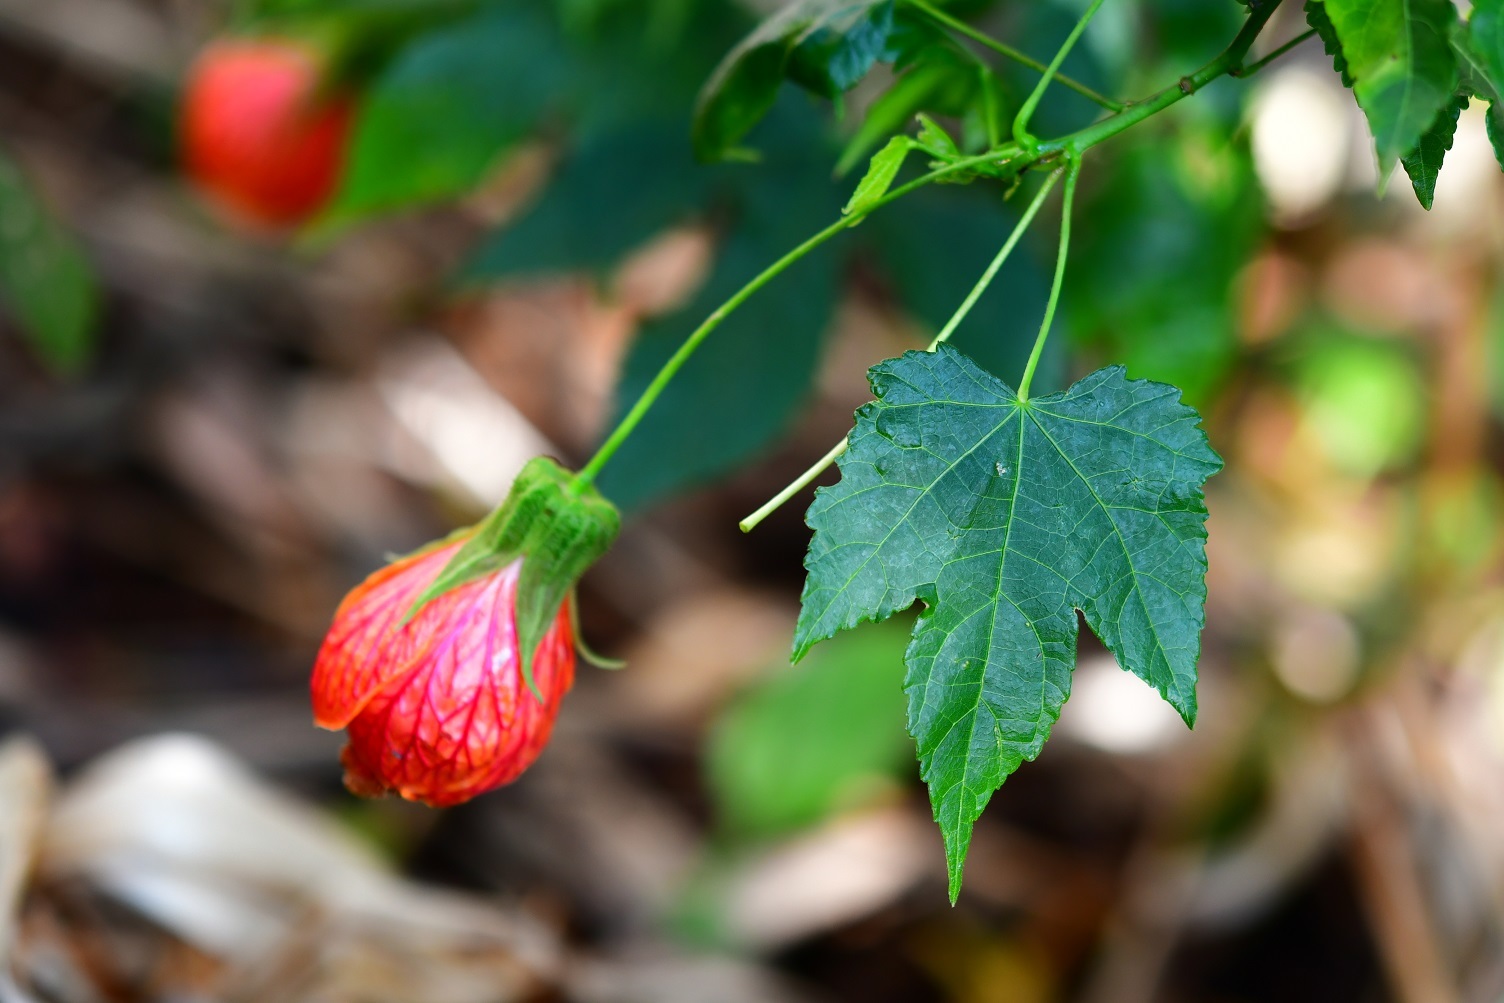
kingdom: Plantae
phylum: Tracheophyta
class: Magnoliopsida
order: Malvales
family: Malvaceae
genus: Callianthe
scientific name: Callianthe picta
